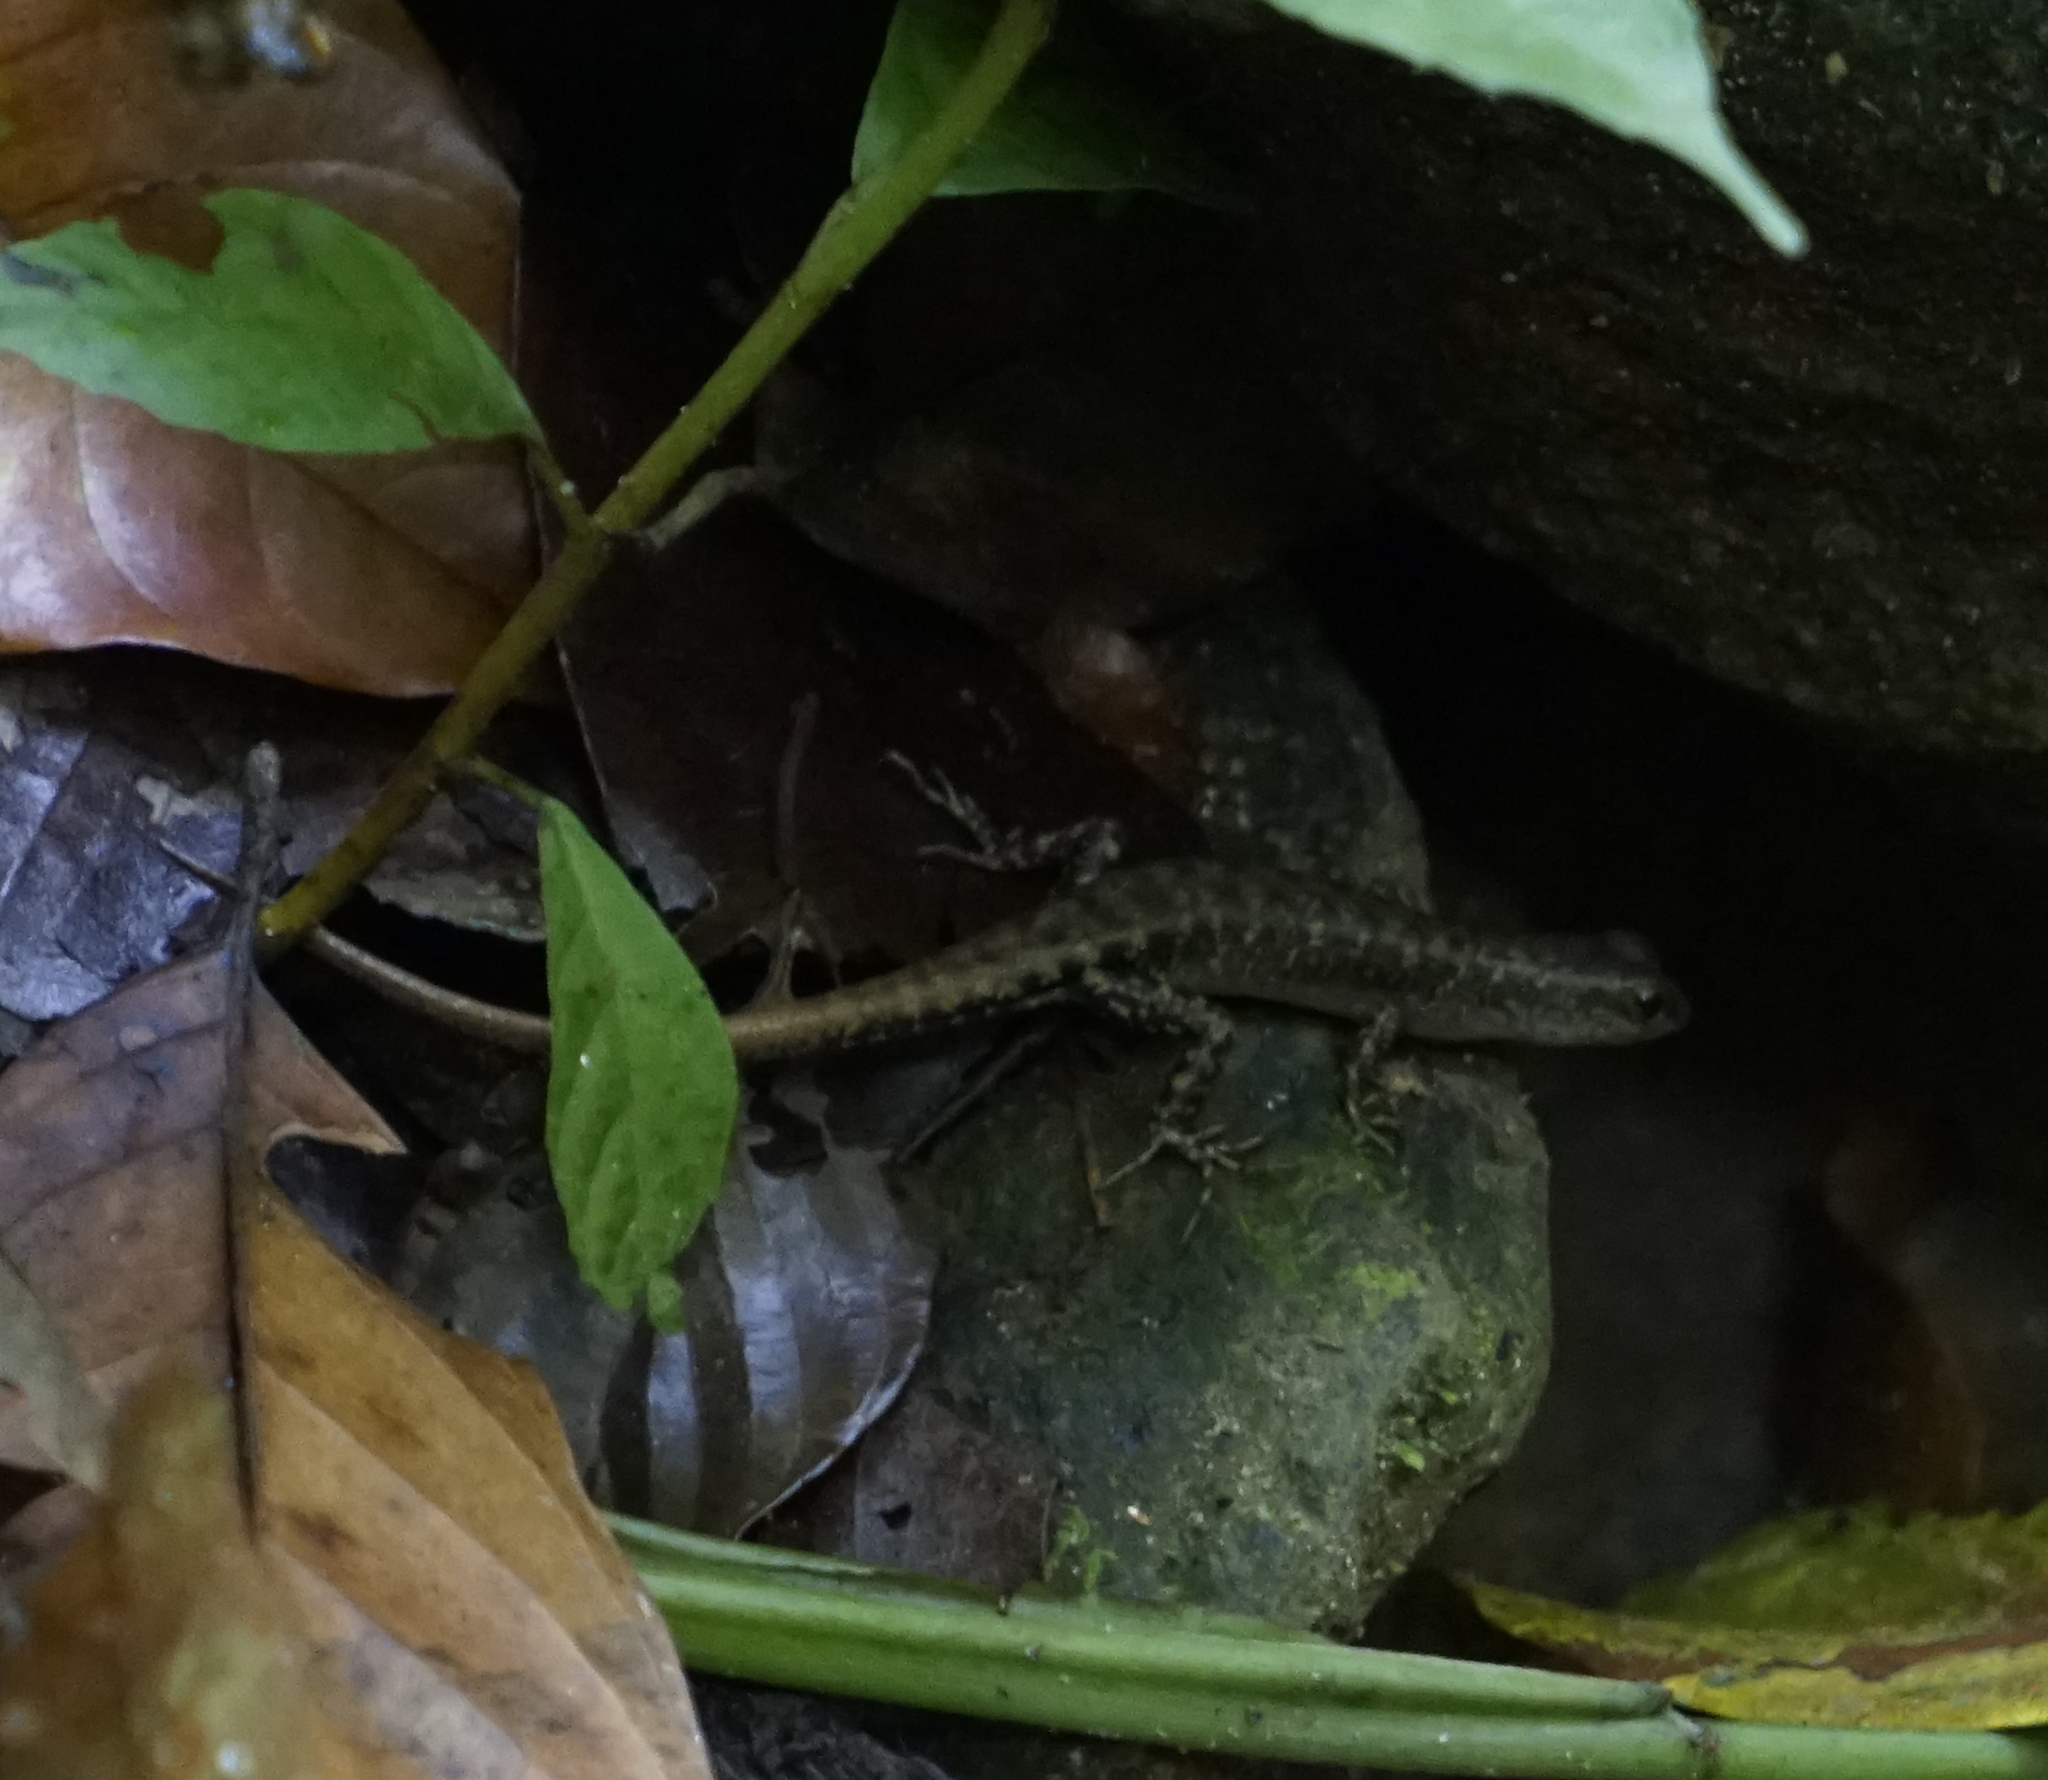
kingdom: Animalia
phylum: Chordata
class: Squamata
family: Scincidae
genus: Sphenomorphus
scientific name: Sphenomorphus sabanus
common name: Sabah slender skink
